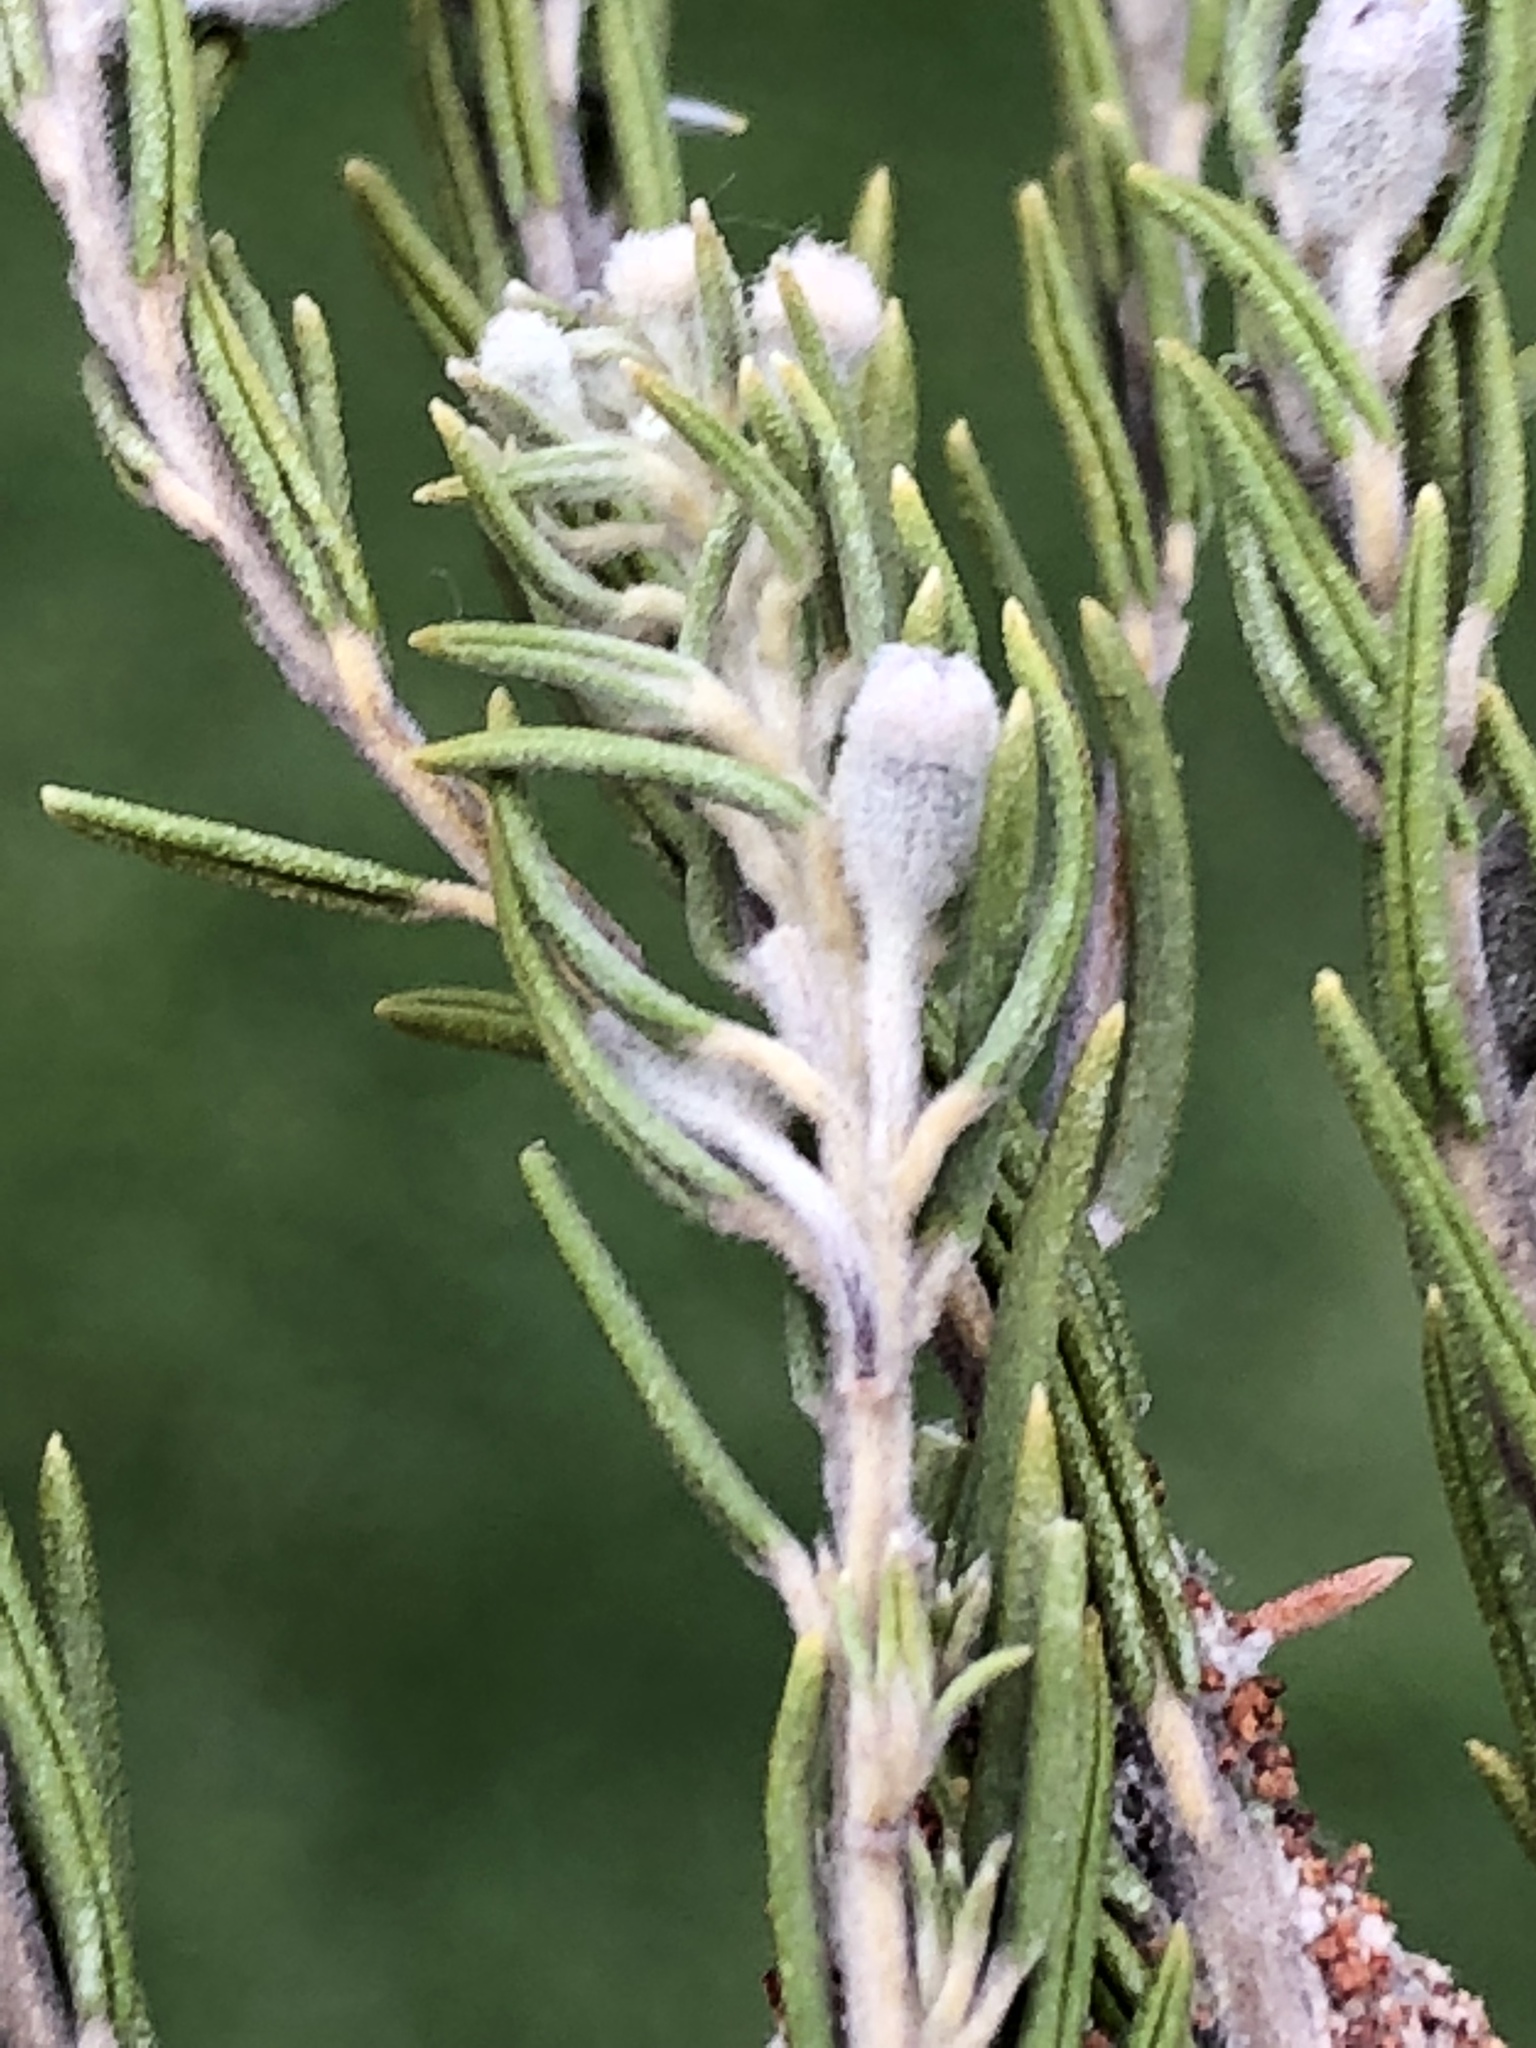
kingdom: Plantae
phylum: Tracheophyta
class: Magnoliopsida
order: Rosales
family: Rhamnaceae
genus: Phylica
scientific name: Phylica axillaris
